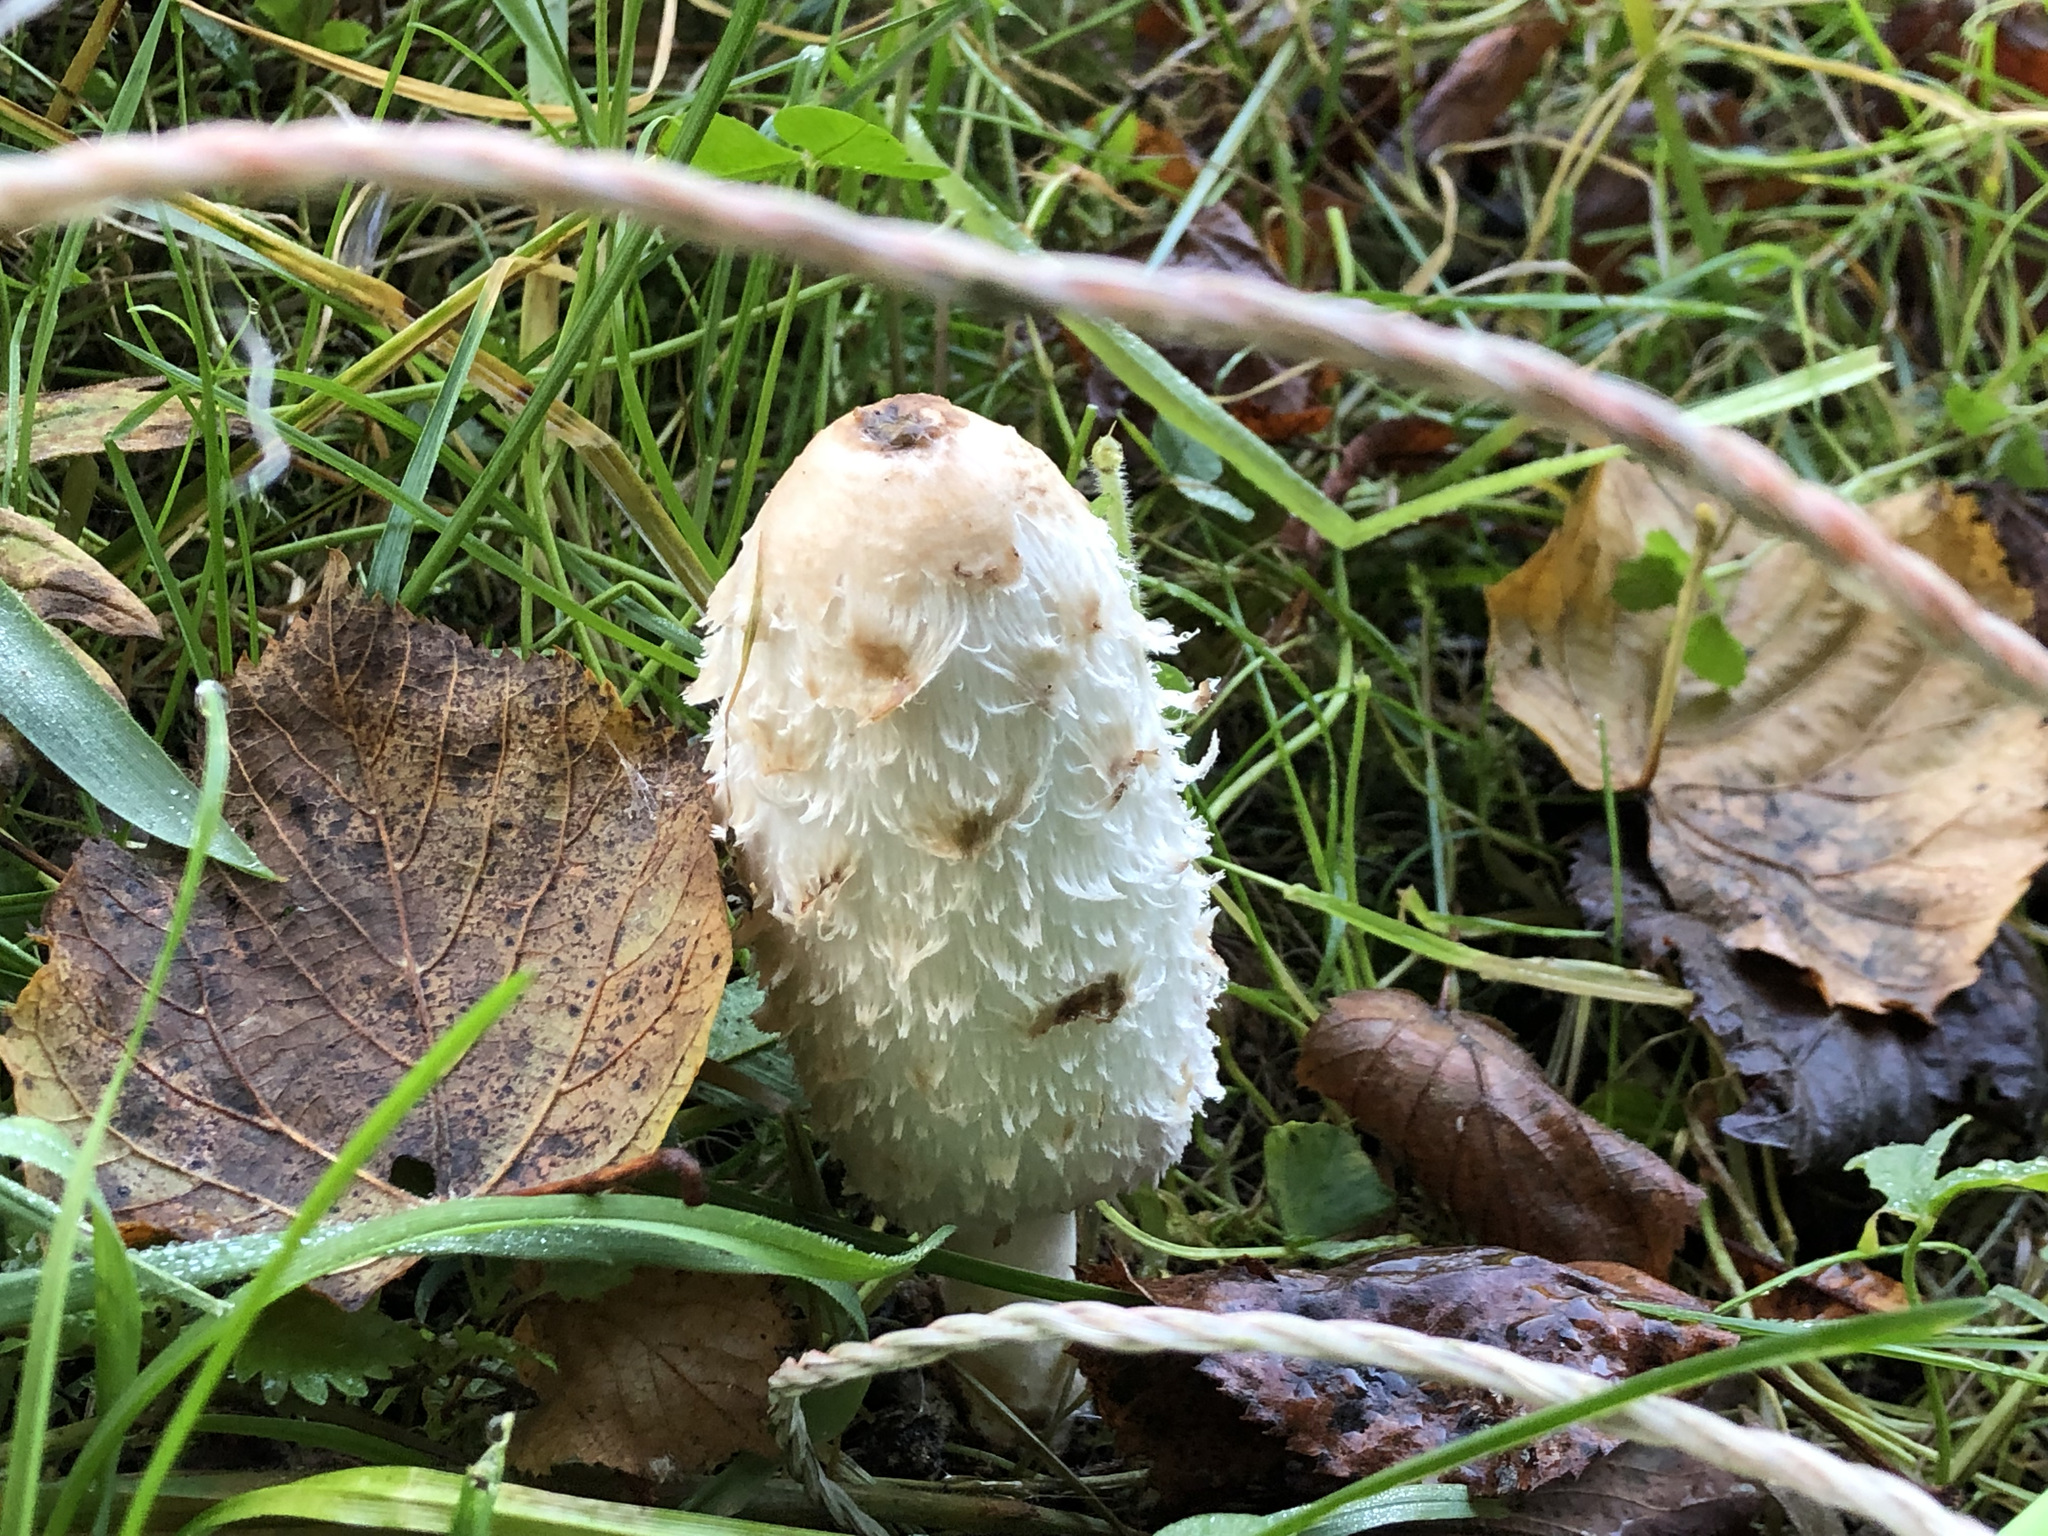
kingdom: Fungi
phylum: Basidiomycota
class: Agaricomycetes
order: Agaricales
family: Agaricaceae
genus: Coprinus
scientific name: Coprinus comatus
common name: Lawyer's wig
